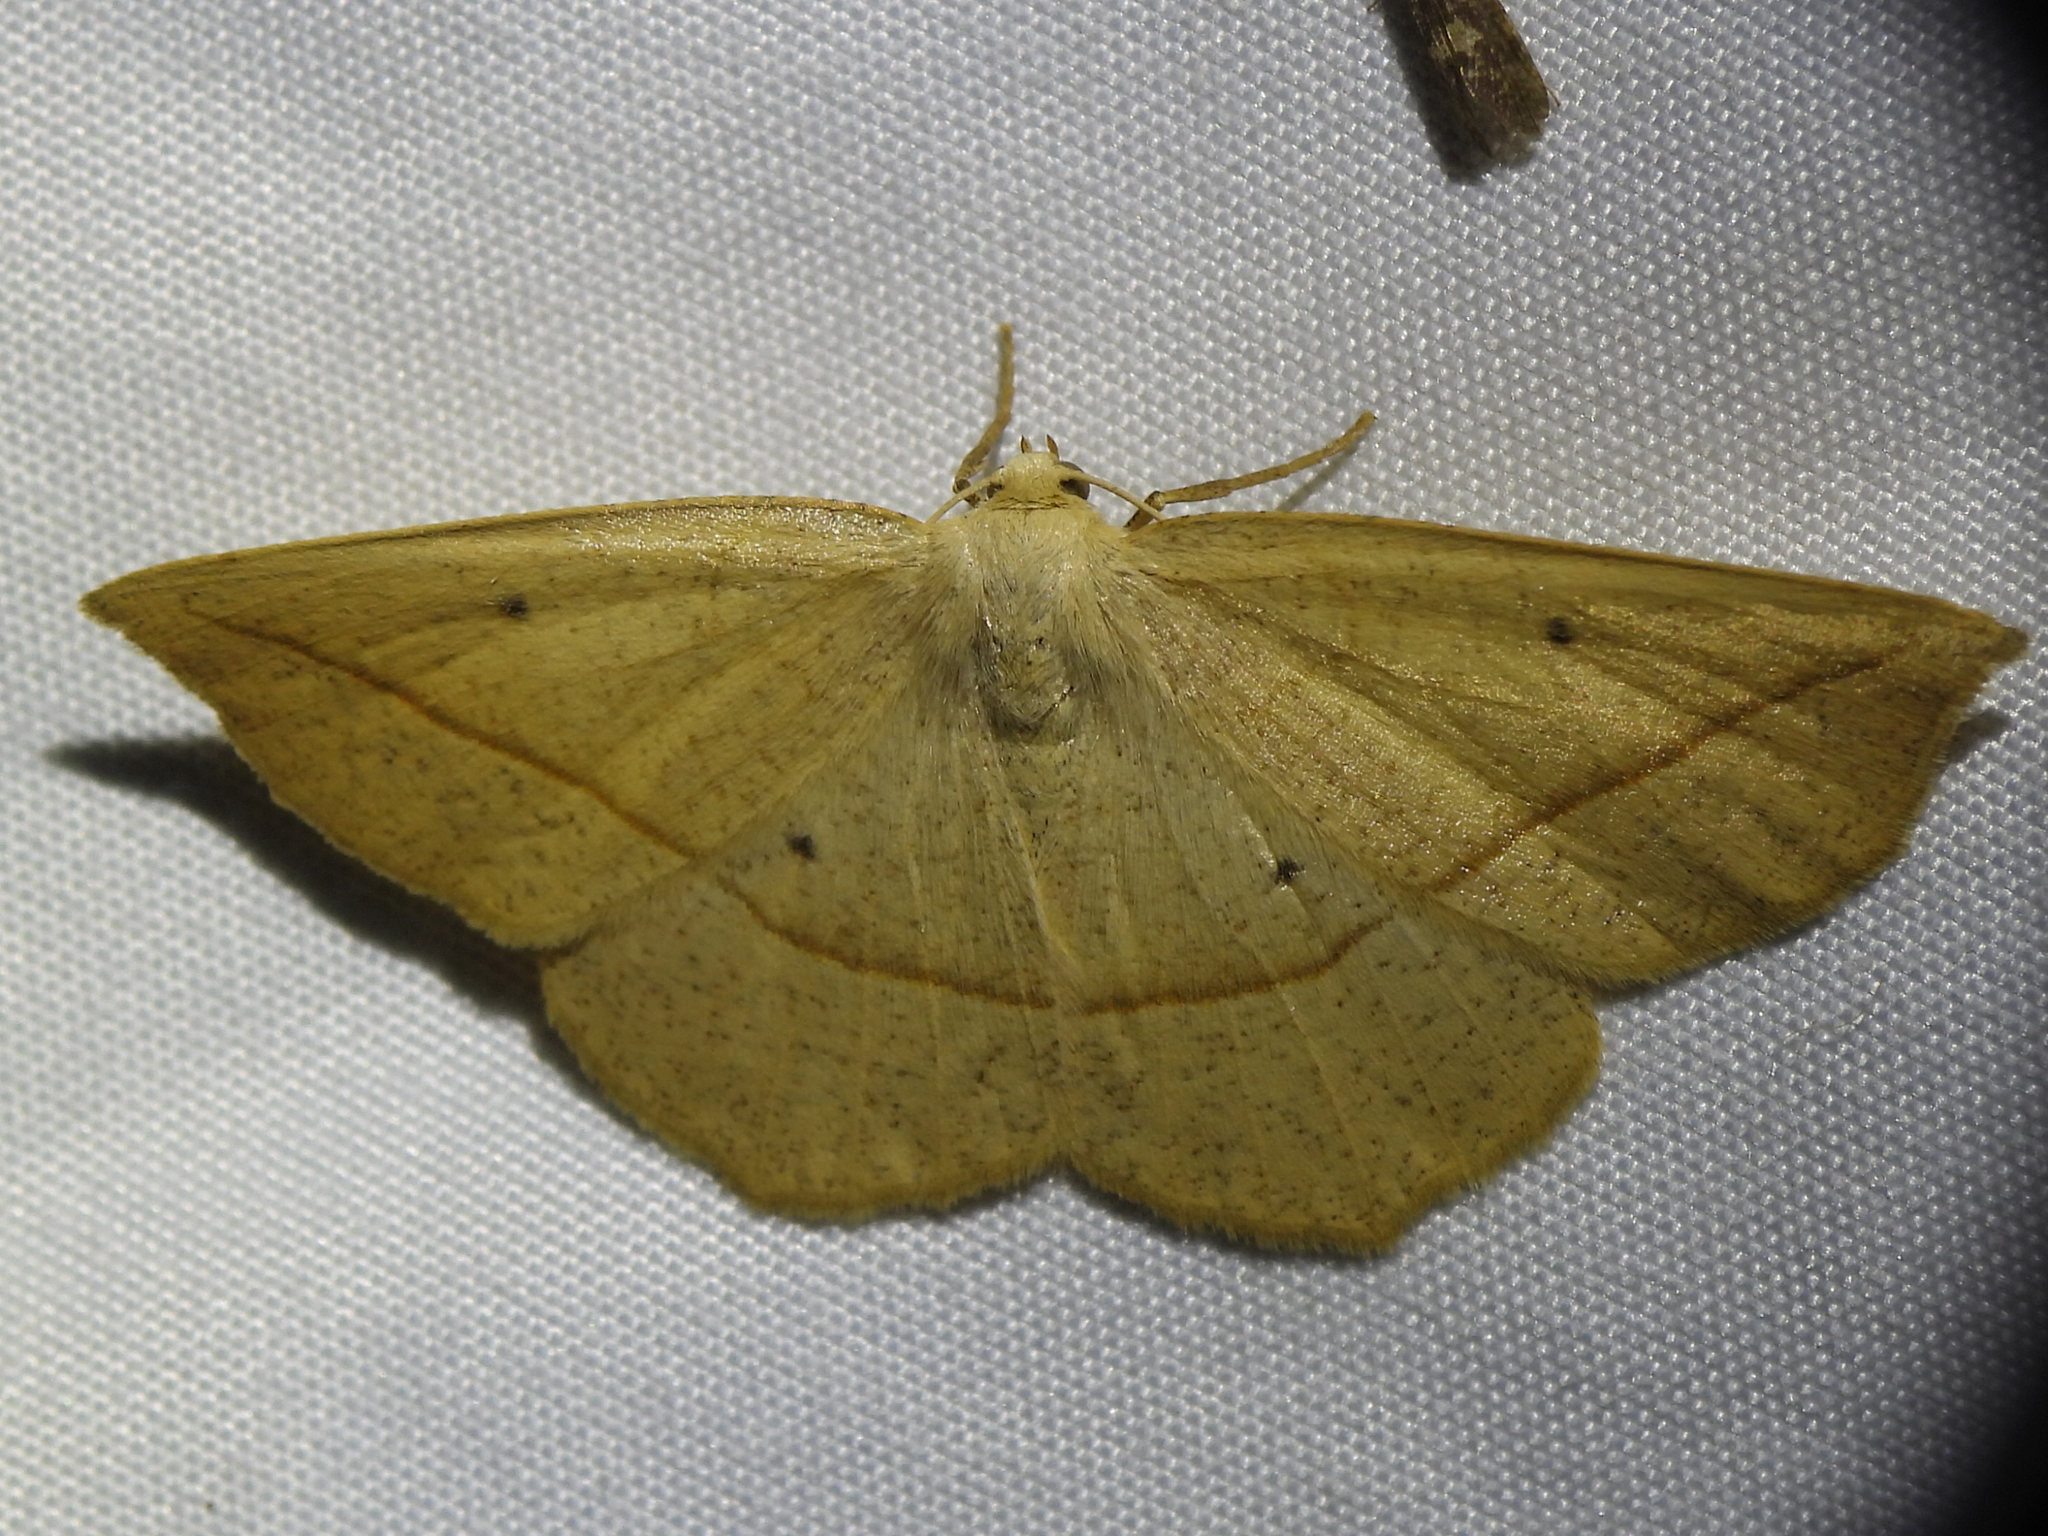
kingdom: Animalia
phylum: Arthropoda
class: Insecta
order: Lepidoptera
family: Geometridae
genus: Eusarca
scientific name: Eusarca confusaria
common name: Confused eusarca
